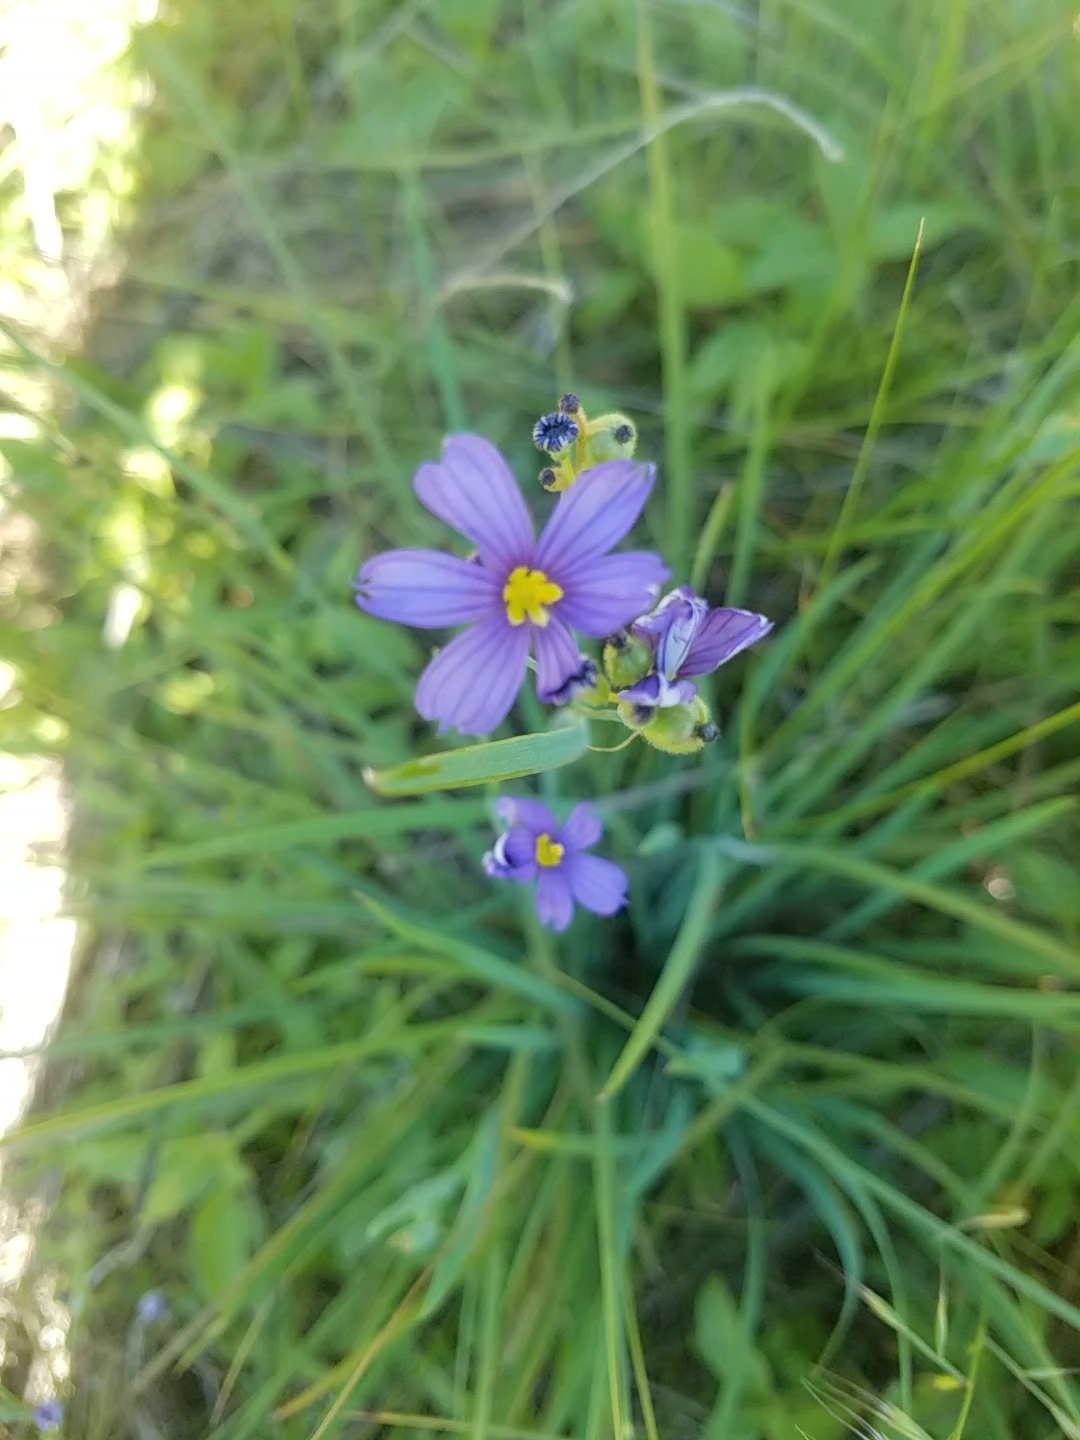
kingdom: Plantae
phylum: Tracheophyta
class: Liliopsida
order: Asparagales
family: Iridaceae
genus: Sisyrinchium
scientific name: Sisyrinchium bellum
